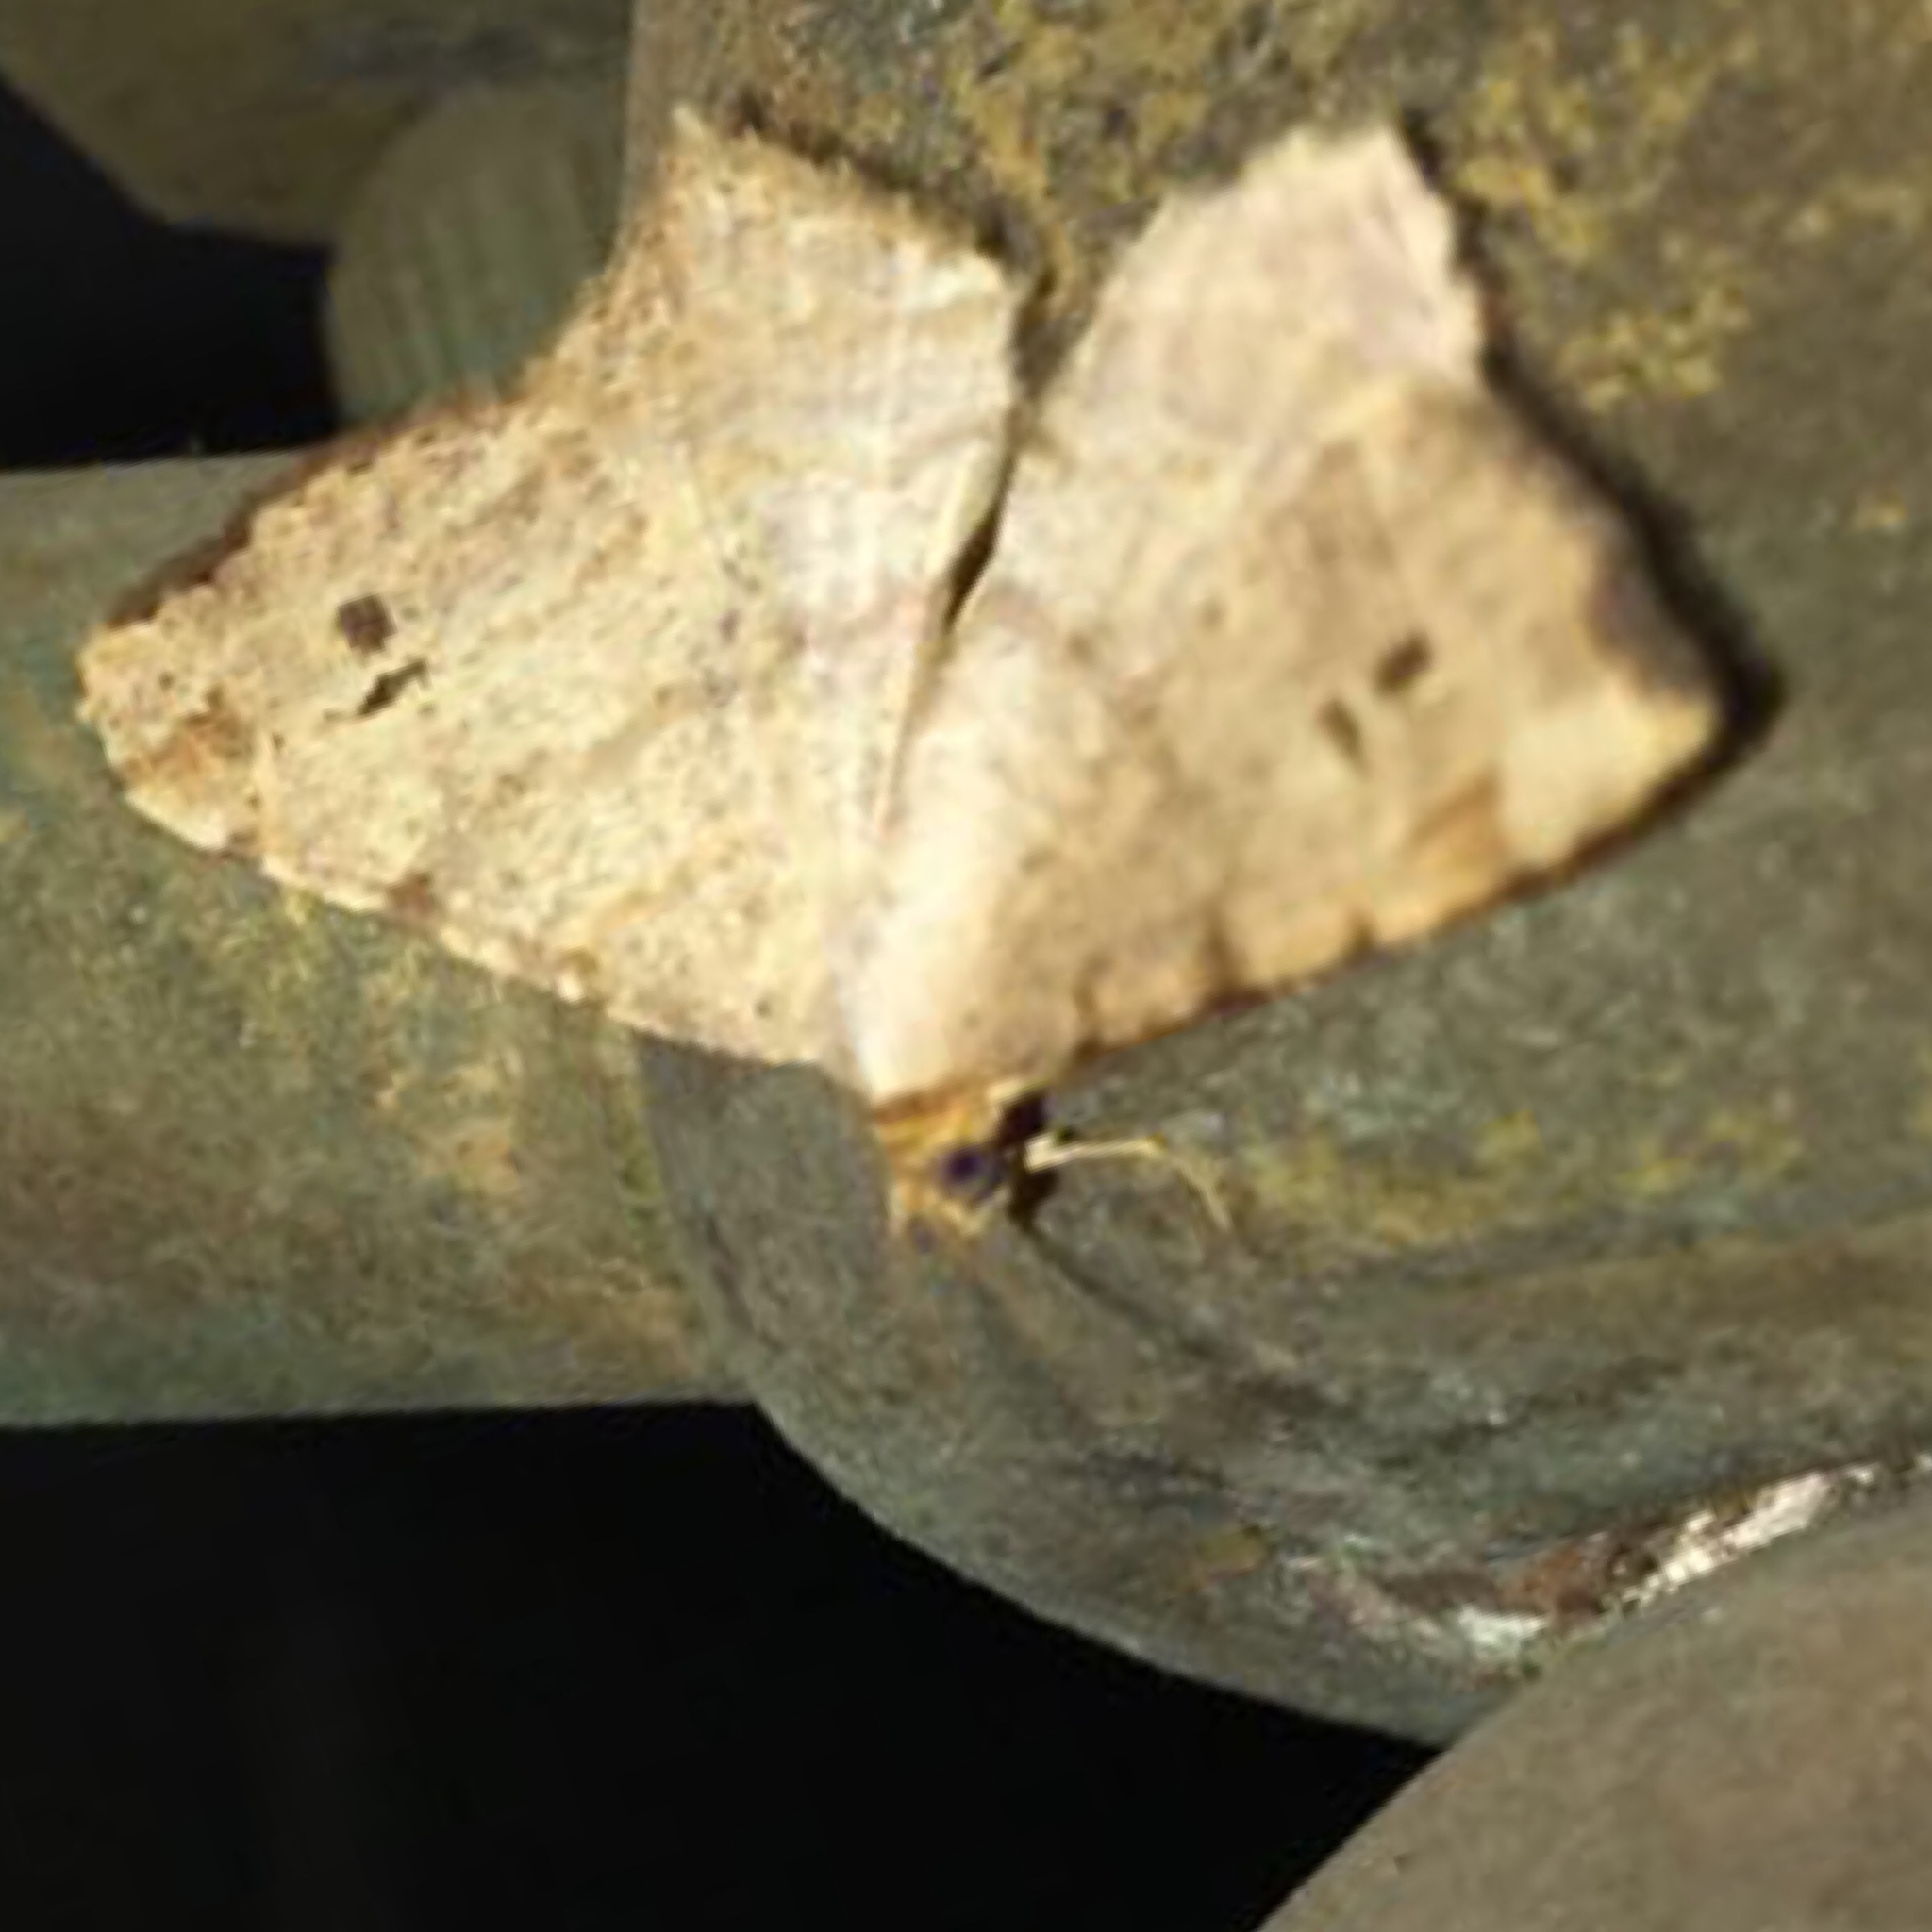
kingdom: Animalia
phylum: Arthropoda
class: Insecta
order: Lepidoptera
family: Geometridae
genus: Macaria
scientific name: Macaria aemulataria
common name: Common angle
